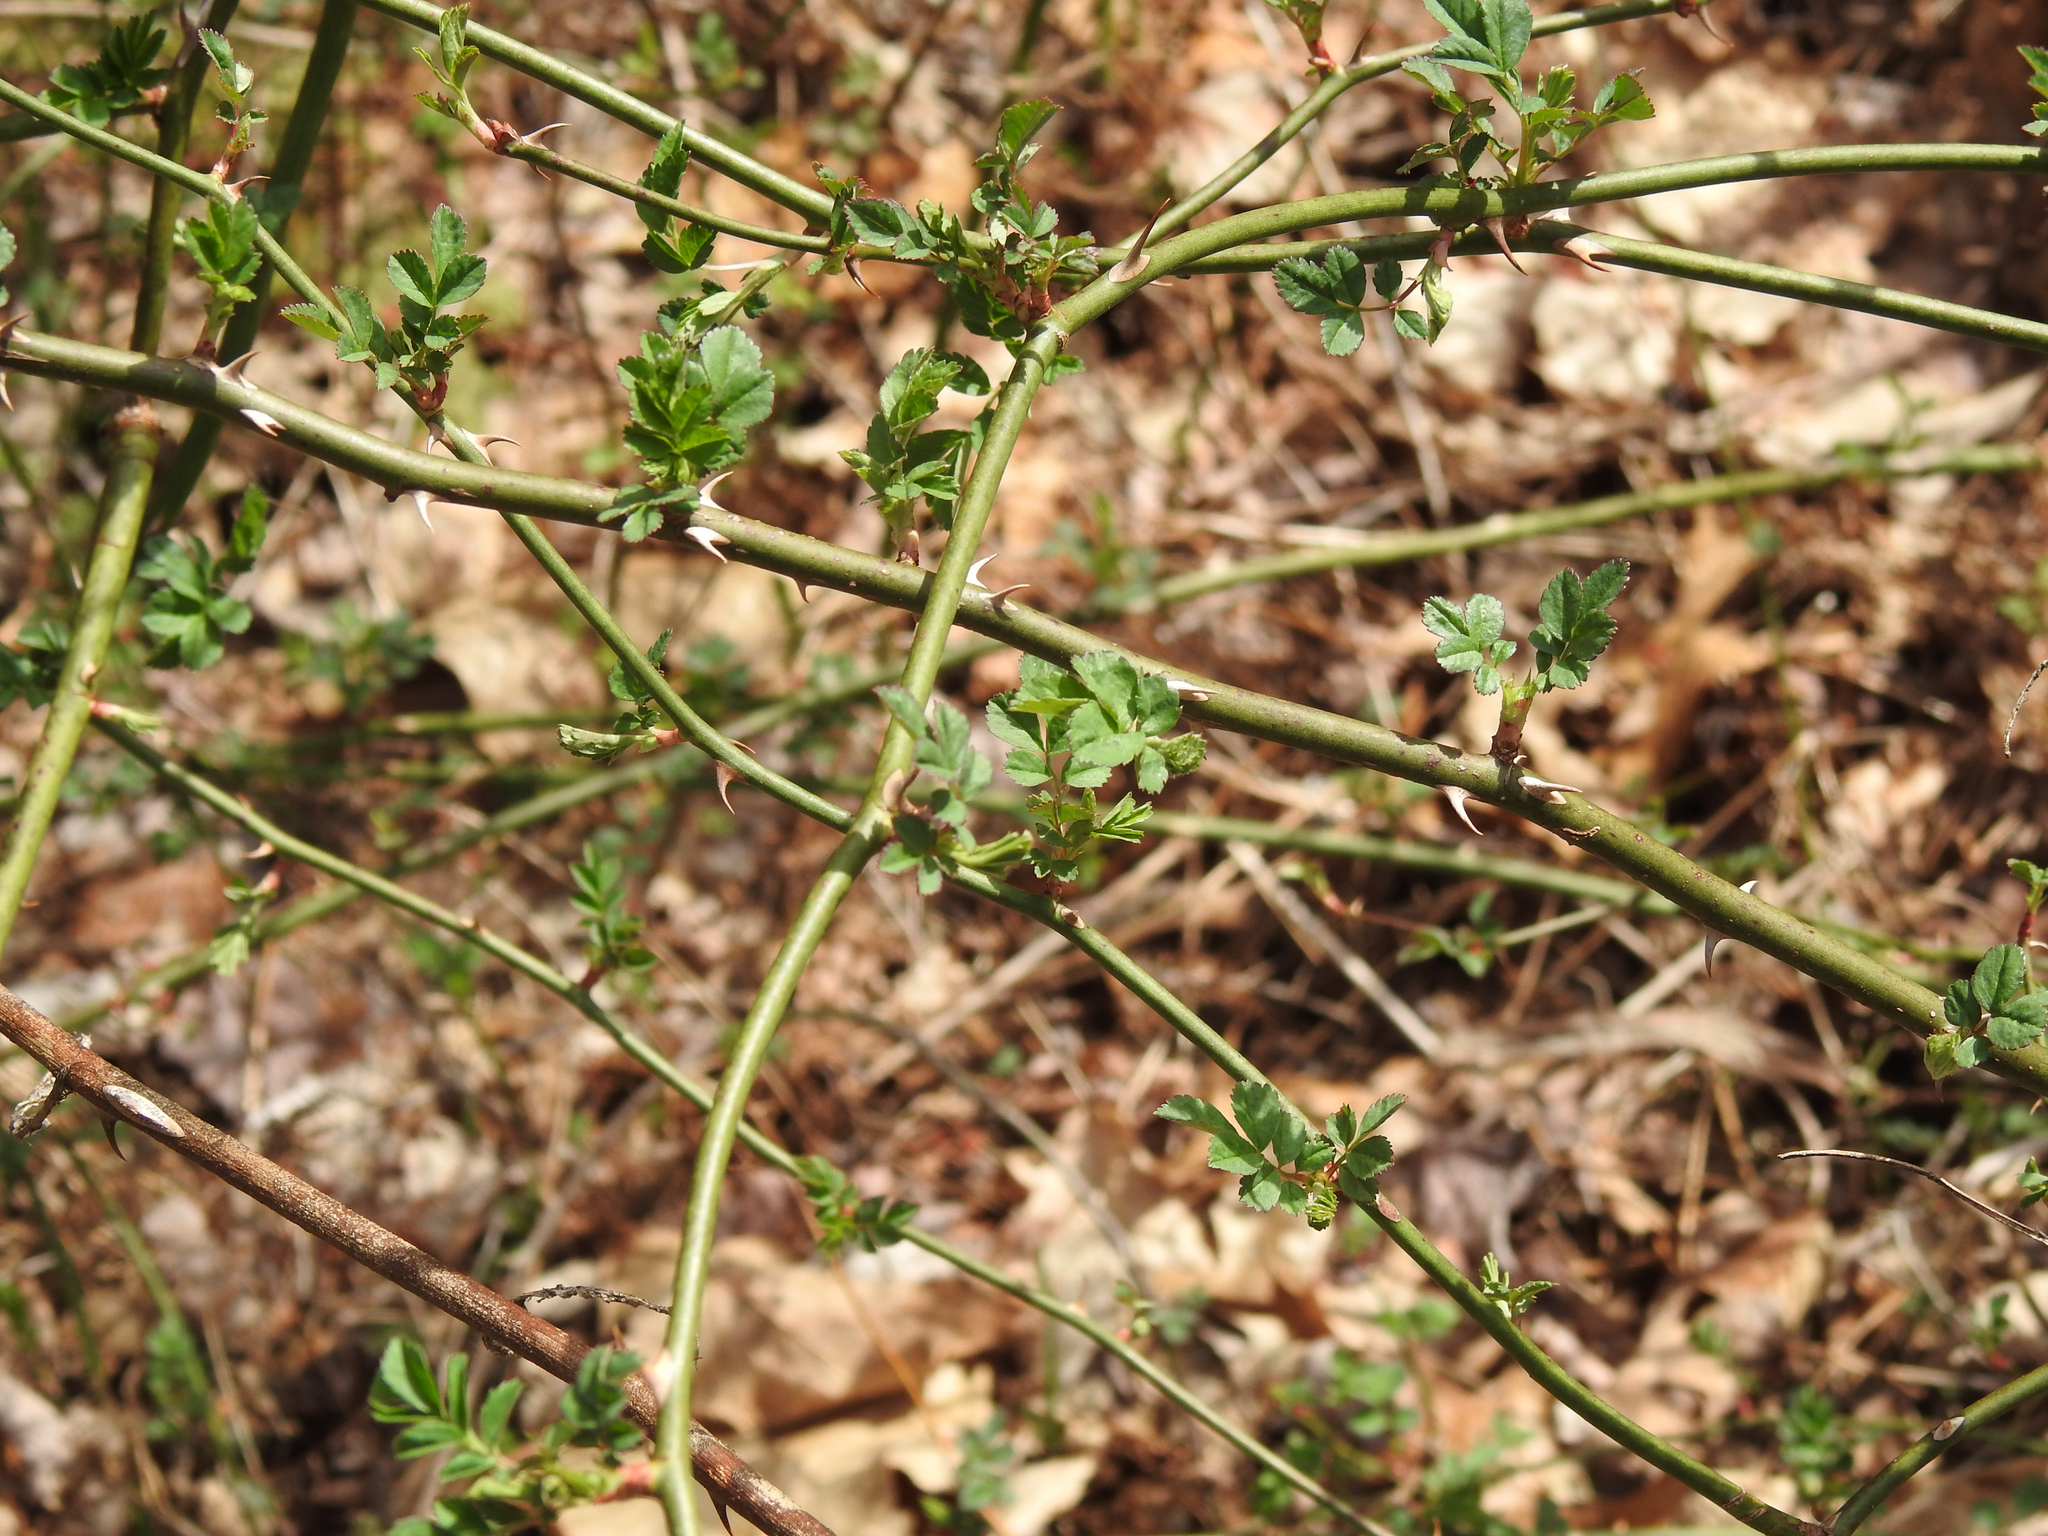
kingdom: Plantae
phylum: Tracheophyta
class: Magnoliopsida
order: Rosales
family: Rosaceae
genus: Rosa
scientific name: Rosa multiflora
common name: Multiflora rose
